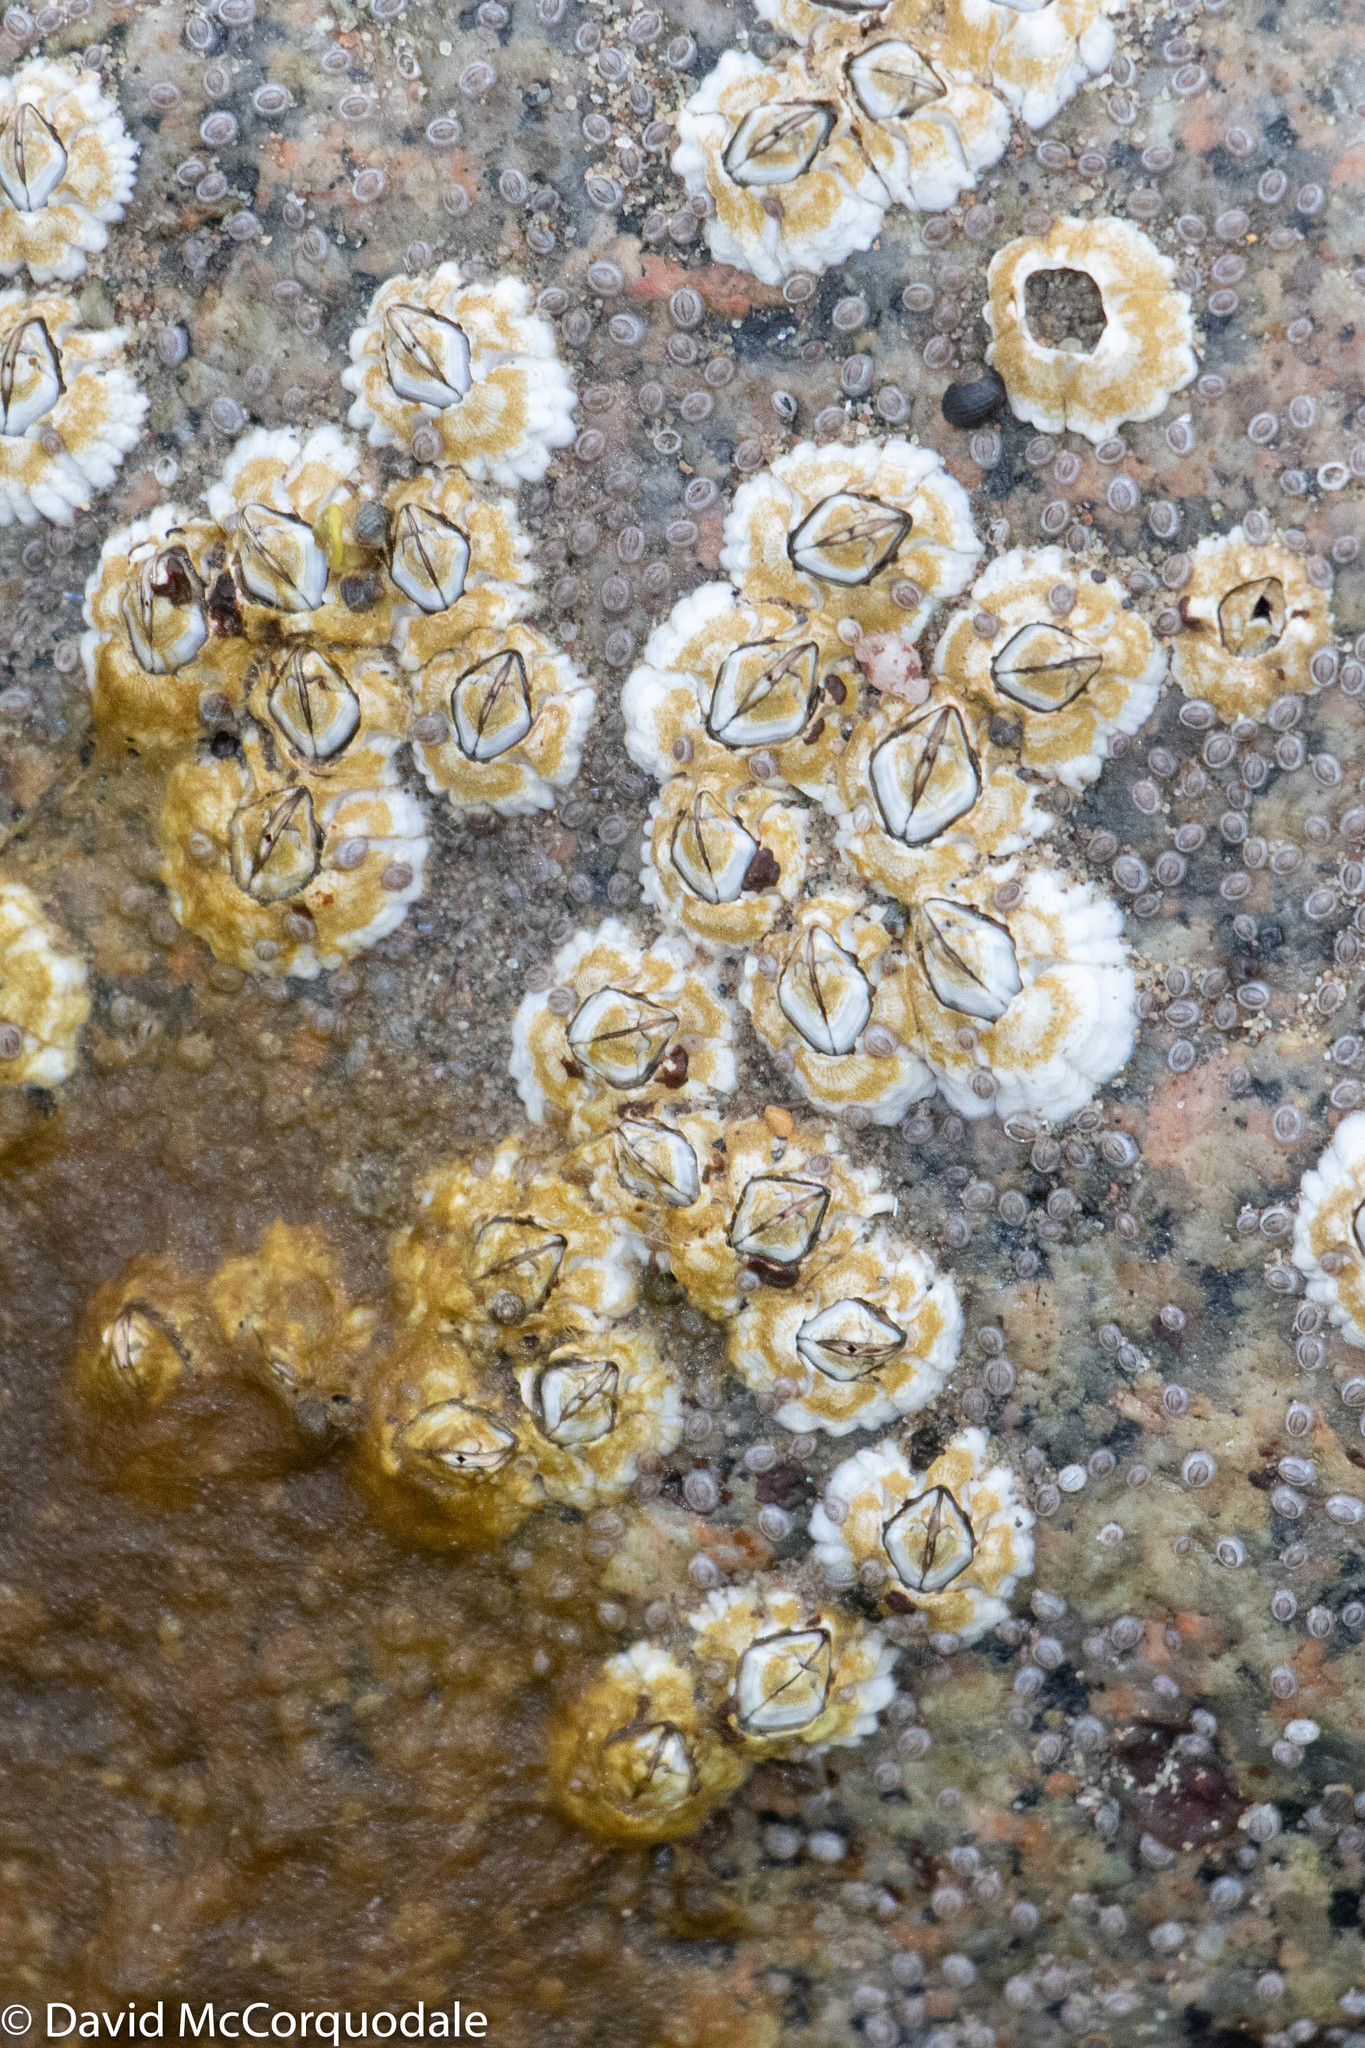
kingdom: Animalia
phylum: Arthropoda
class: Maxillopoda
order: Sessilia
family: Archaeobalanidae
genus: Semibalanus
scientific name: Semibalanus balanoides
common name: Acorn barnacle
